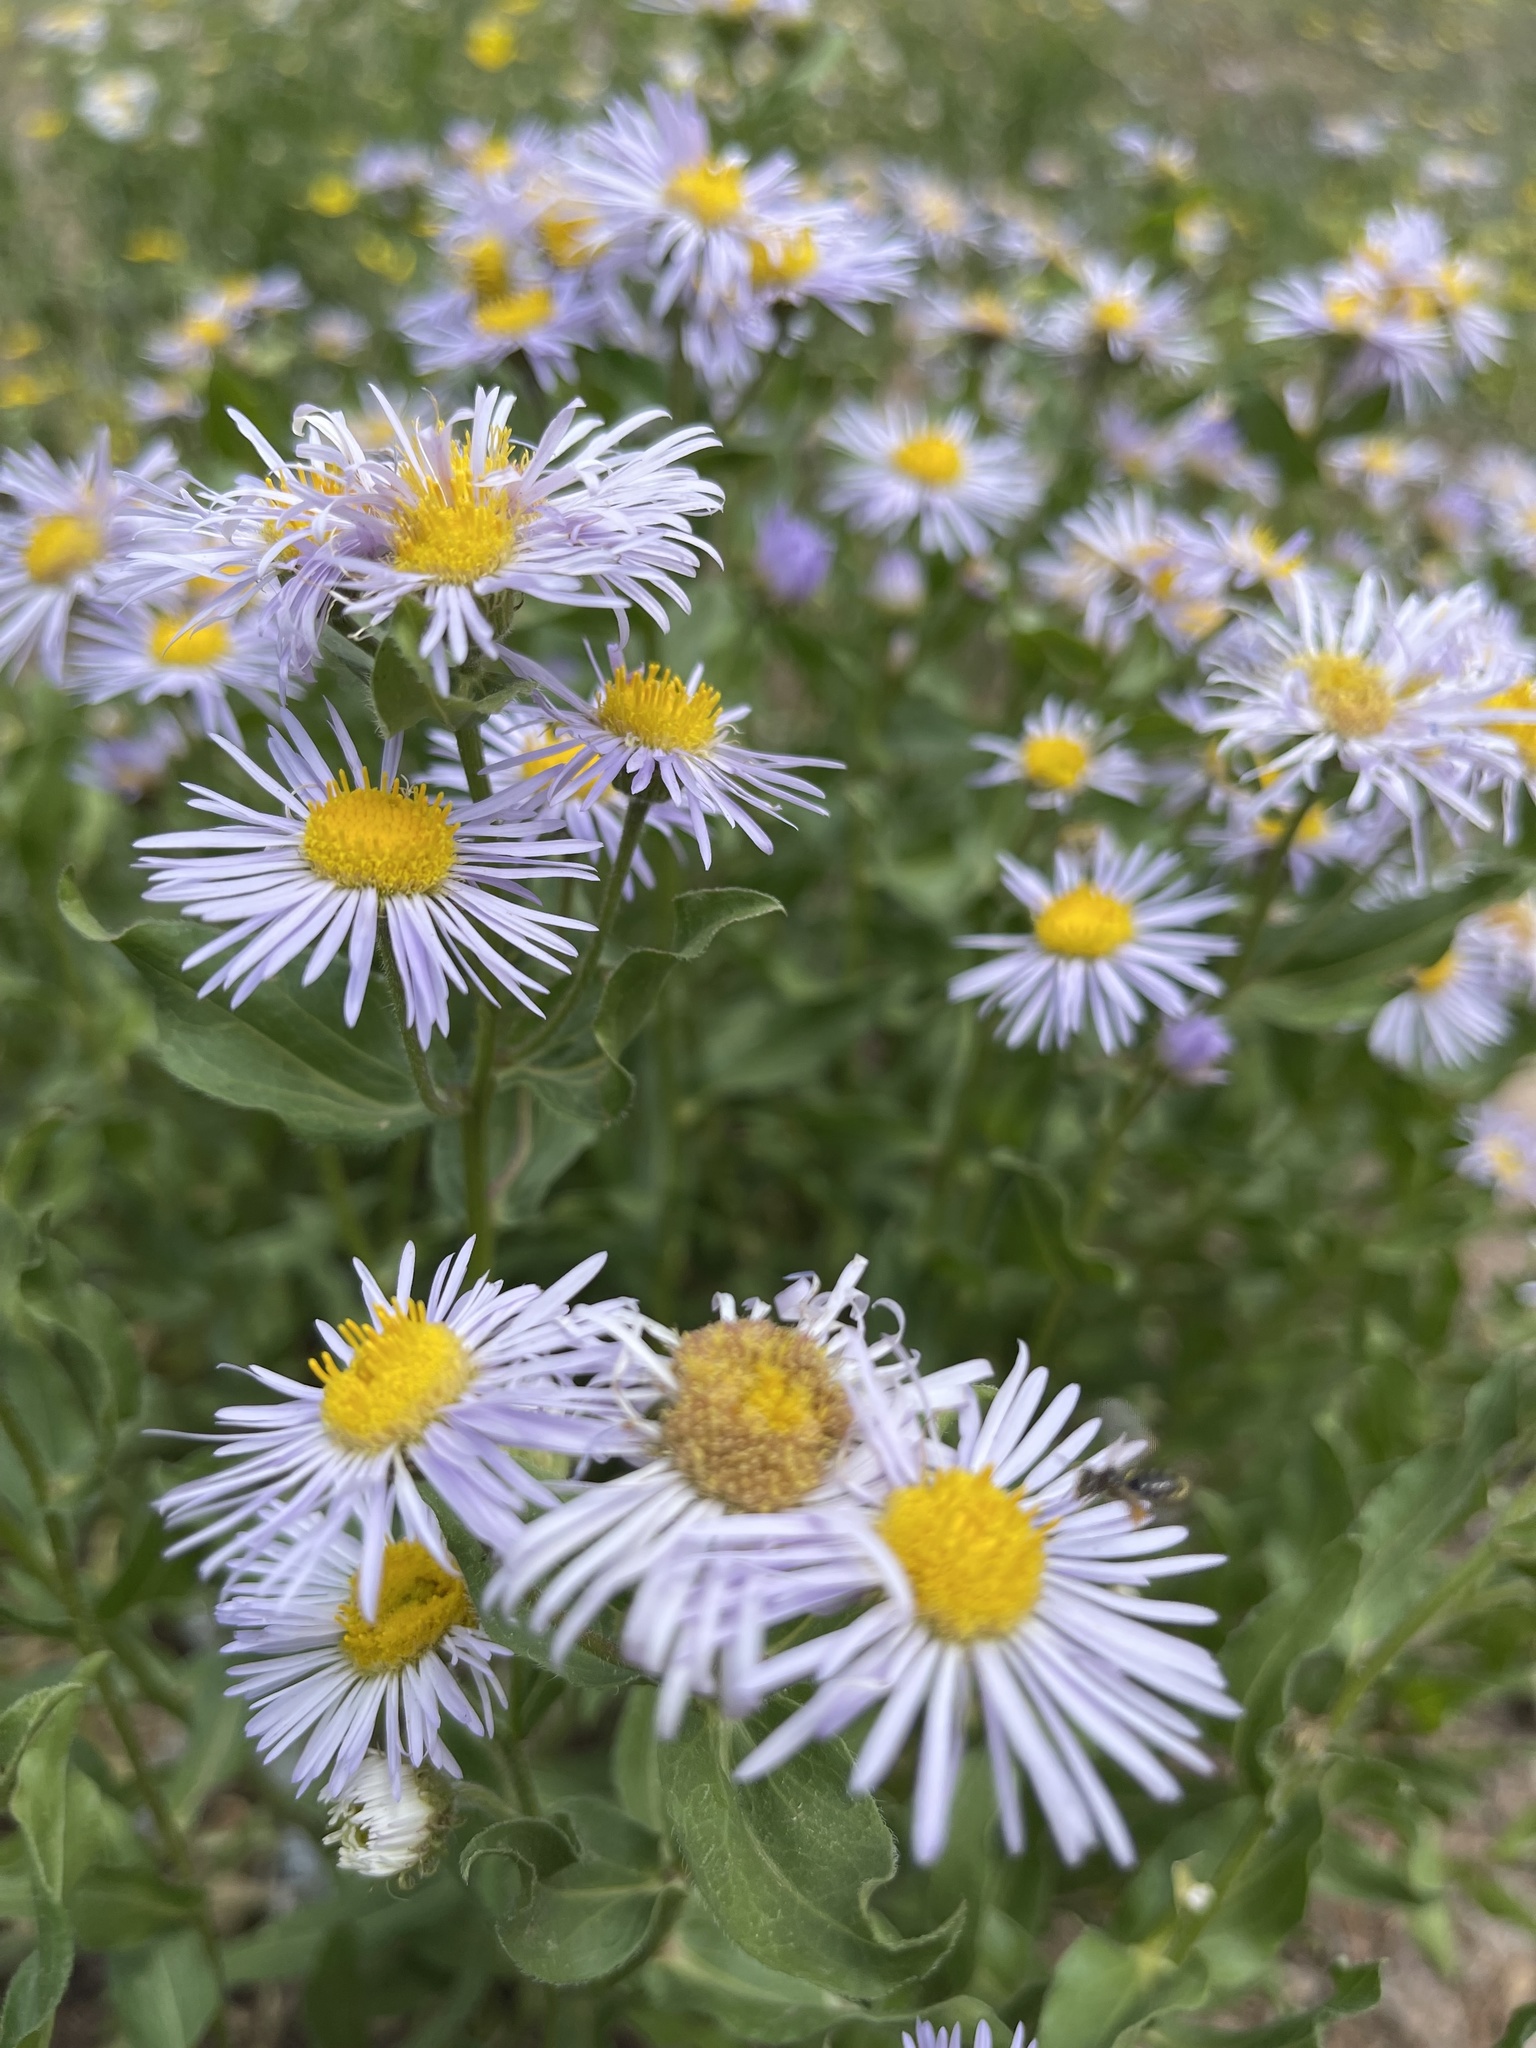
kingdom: Plantae
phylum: Tracheophyta
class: Magnoliopsida
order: Asterales
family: Asteraceae
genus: Erigeron
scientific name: Erigeron speciosus
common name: Aspen fleabane
